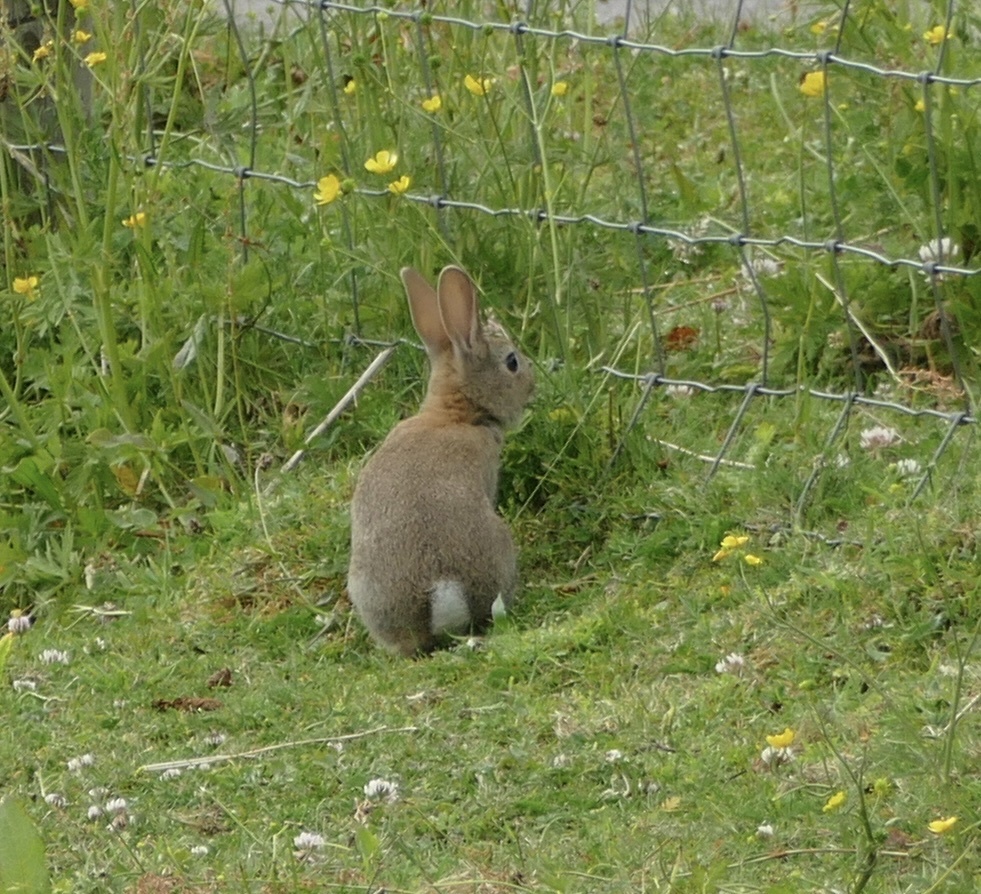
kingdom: Animalia
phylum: Chordata
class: Mammalia
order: Lagomorpha
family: Leporidae
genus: Oryctolagus
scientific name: Oryctolagus cuniculus
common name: European rabbit
